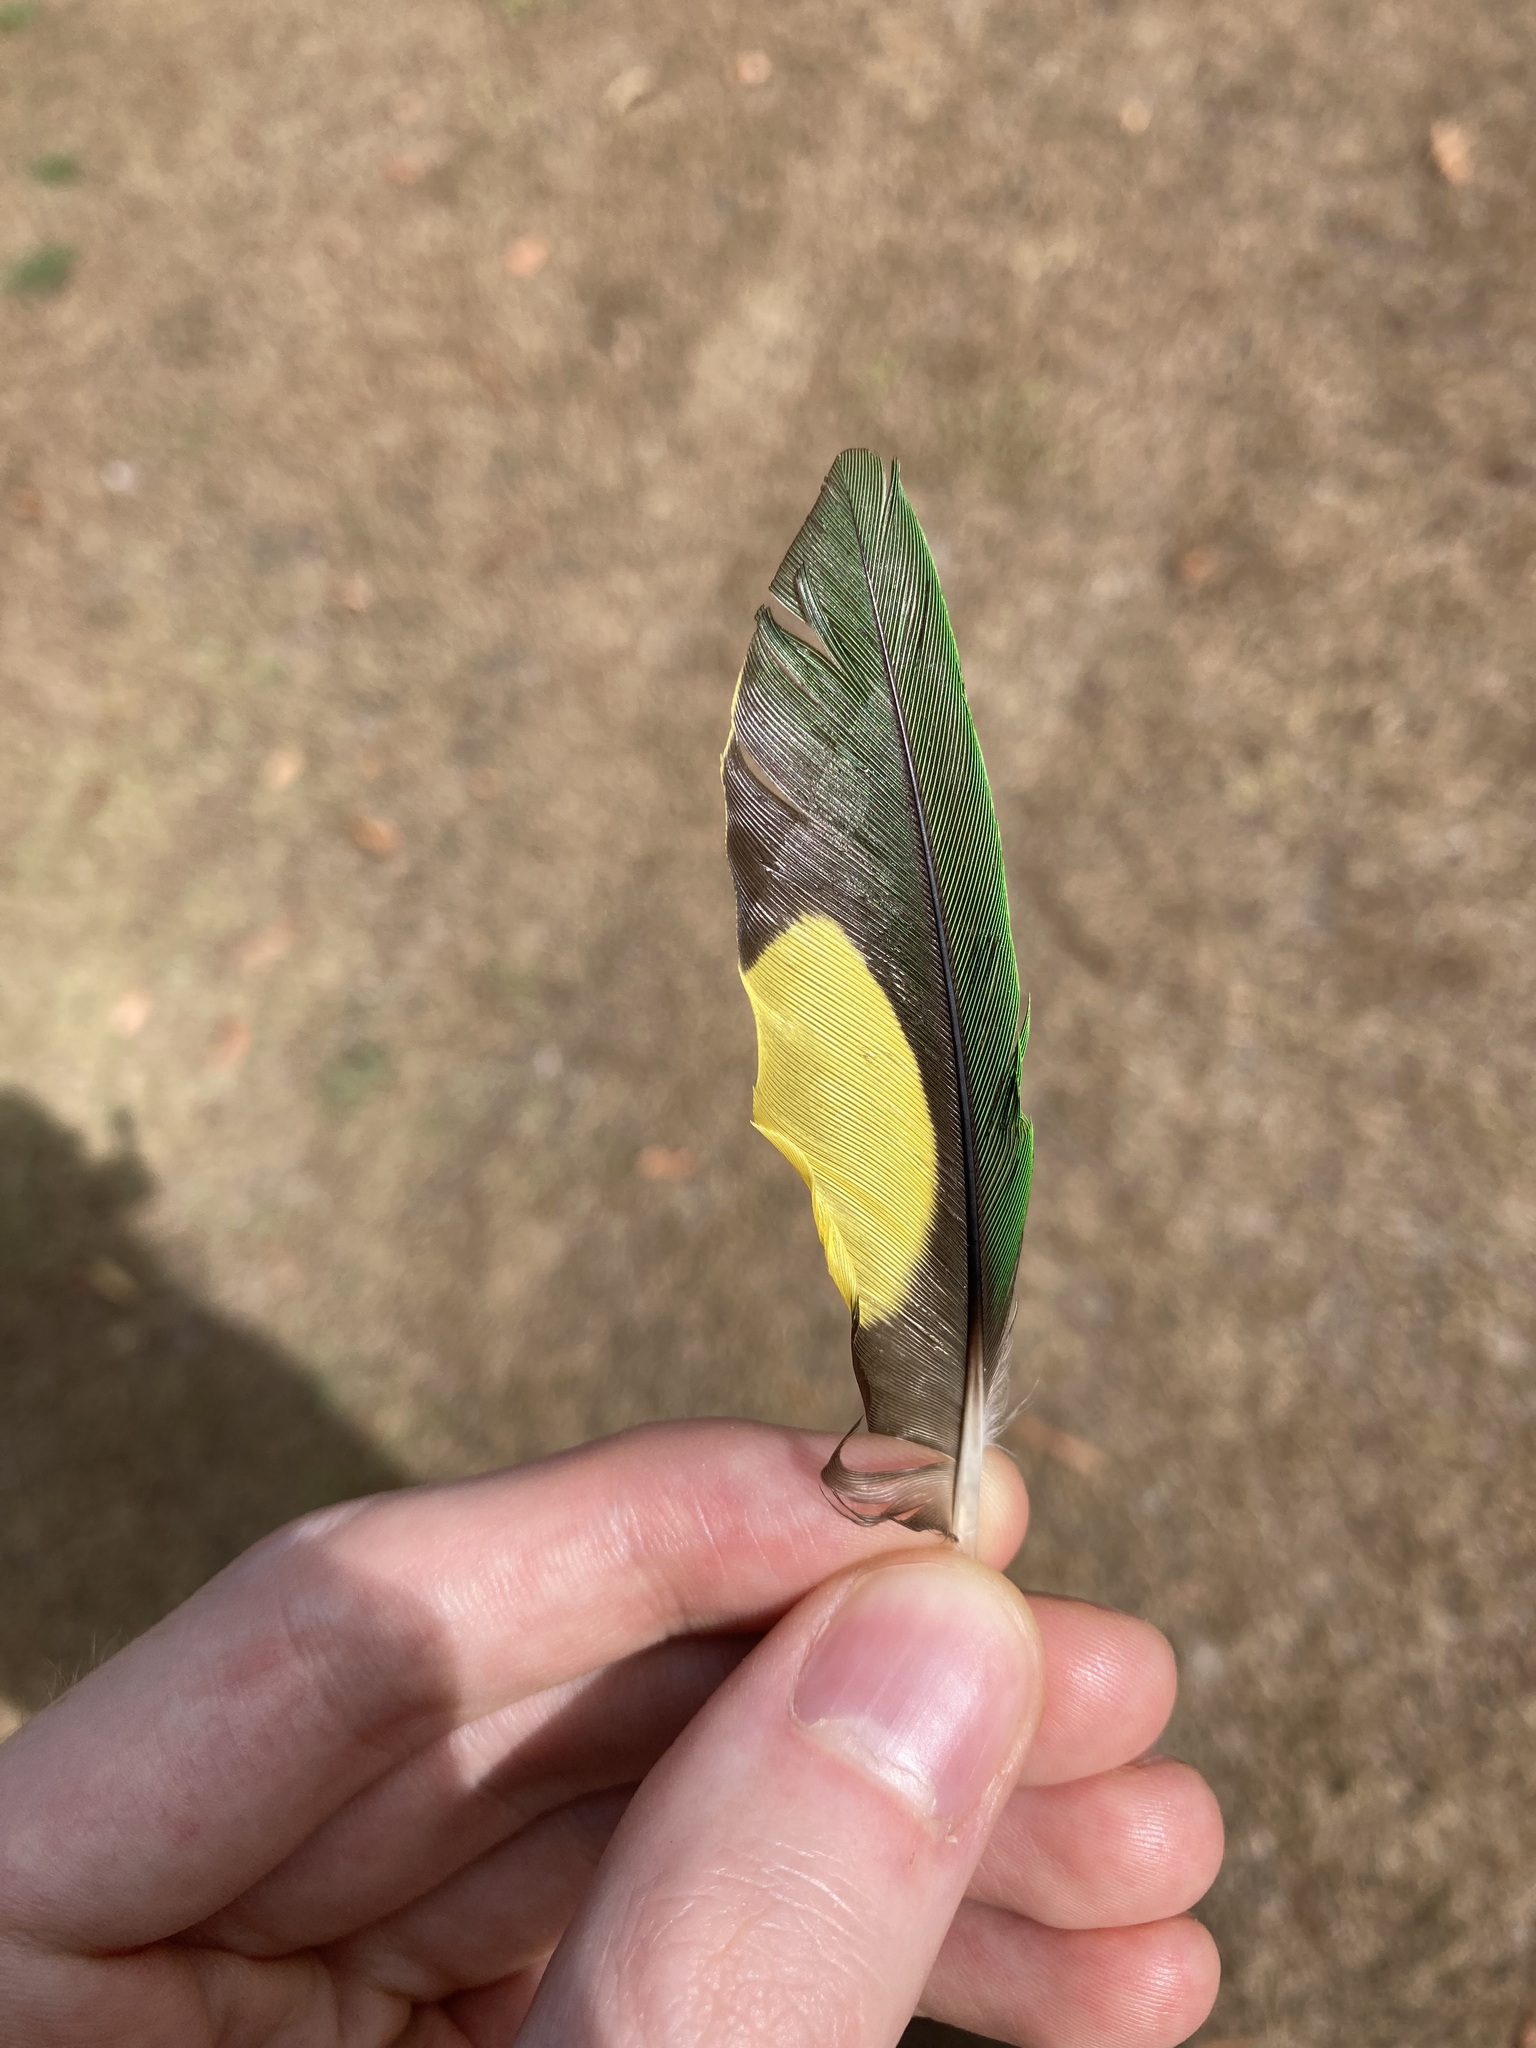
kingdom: Animalia
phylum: Chordata
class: Aves
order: Psittaciformes
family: Psittacidae
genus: Trichoglossus
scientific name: Trichoglossus haematodus
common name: Coconut lorikeet
